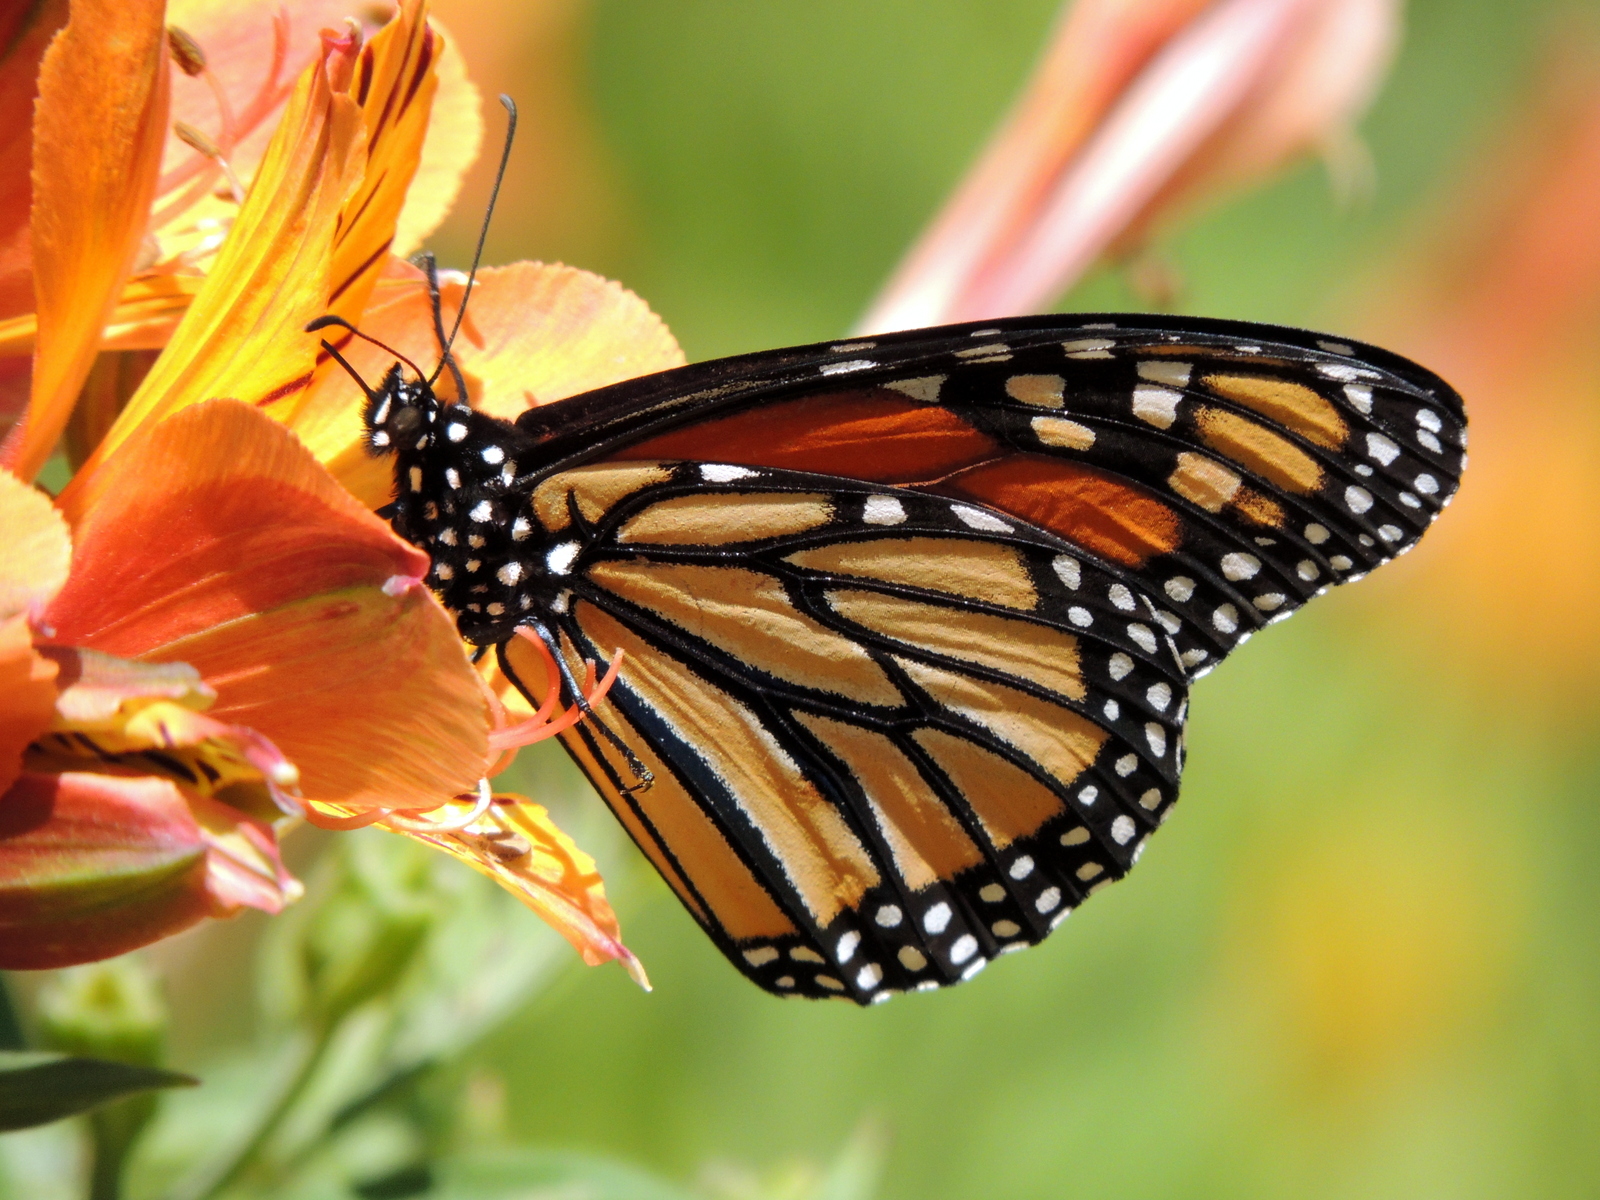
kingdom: Animalia
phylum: Arthropoda
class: Insecta
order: Lepidoptera
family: Nymphalidae
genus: Danaus
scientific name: Danaus plexippus
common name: Monarch
